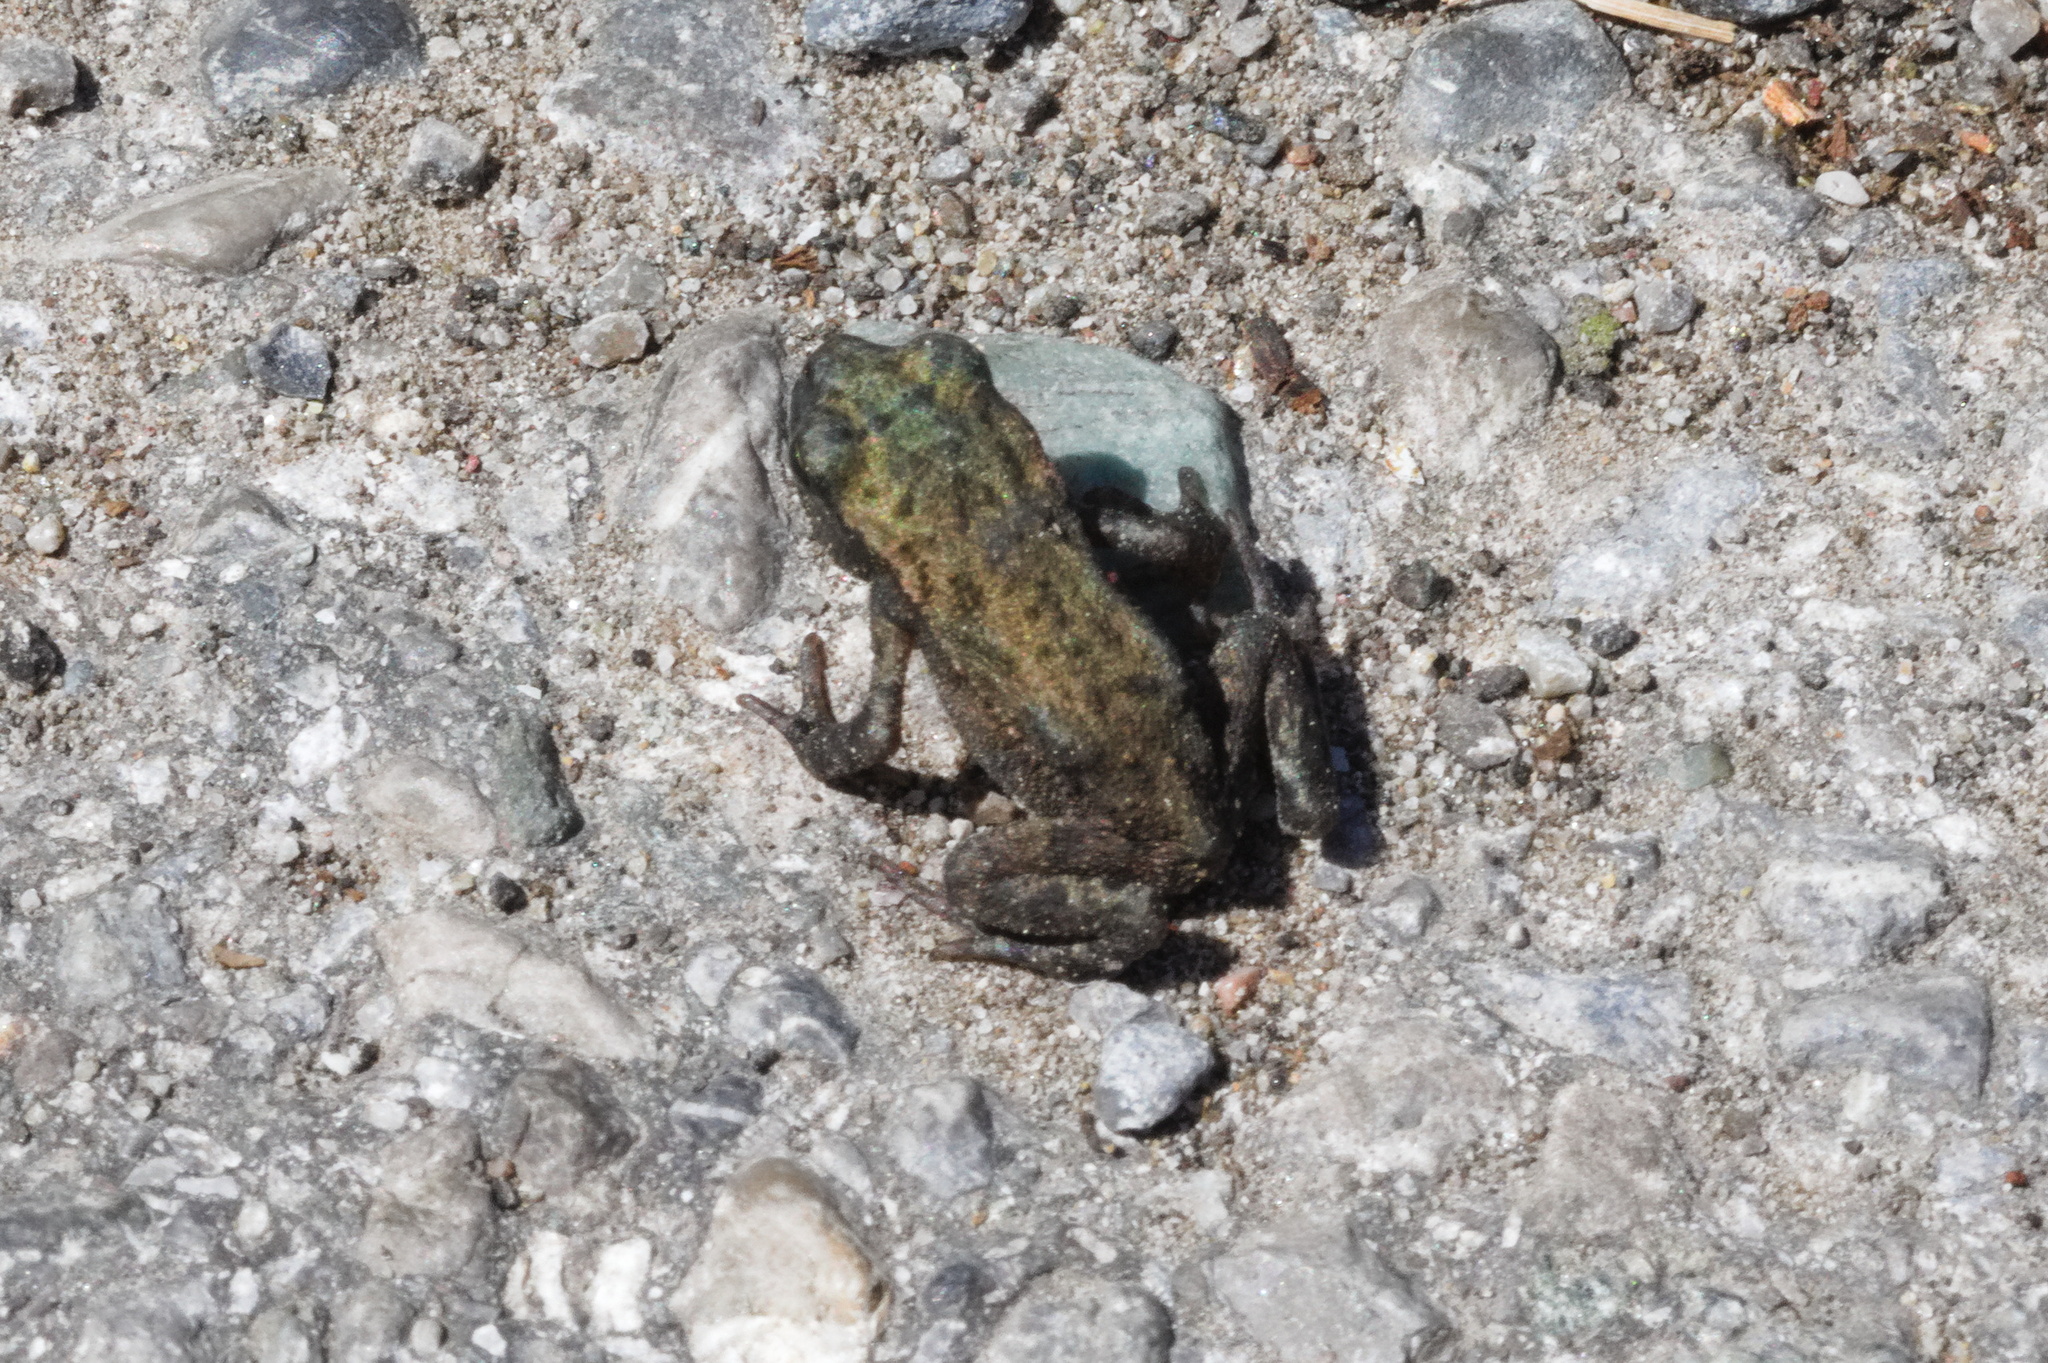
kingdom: Animalia
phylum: Chordata
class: Amphibia
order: Anura
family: Bufonidae
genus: Bufo
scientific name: Bufo bufo
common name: Common toad
